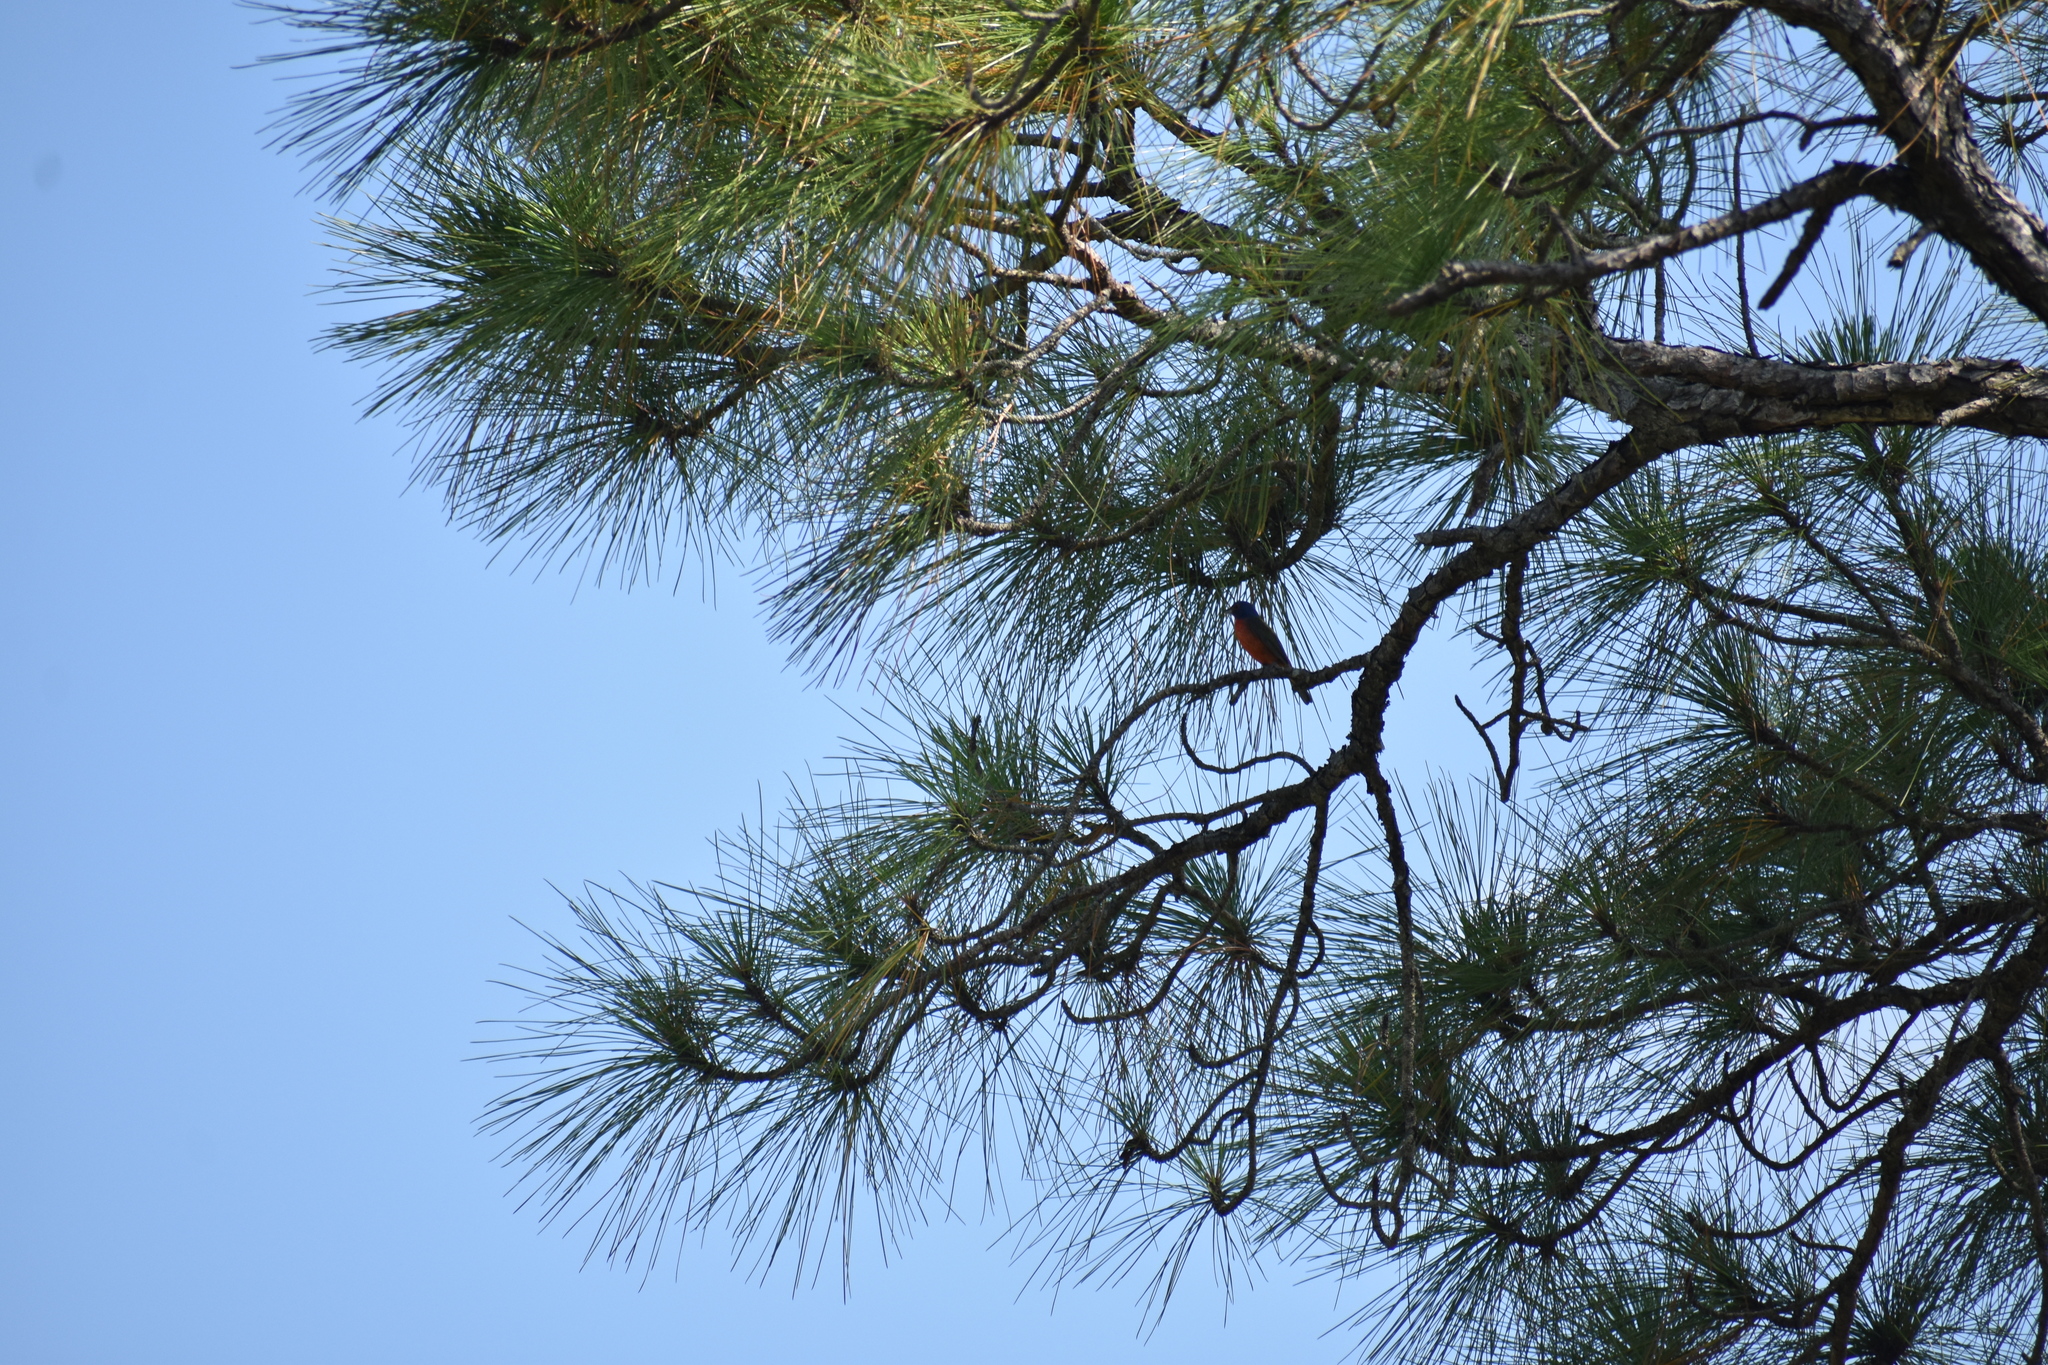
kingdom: Animalia
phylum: Chordata
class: Aves
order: Passeriformes
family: Cardinalidae
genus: Passerina
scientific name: Passerina ciris
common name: Painted bunting
